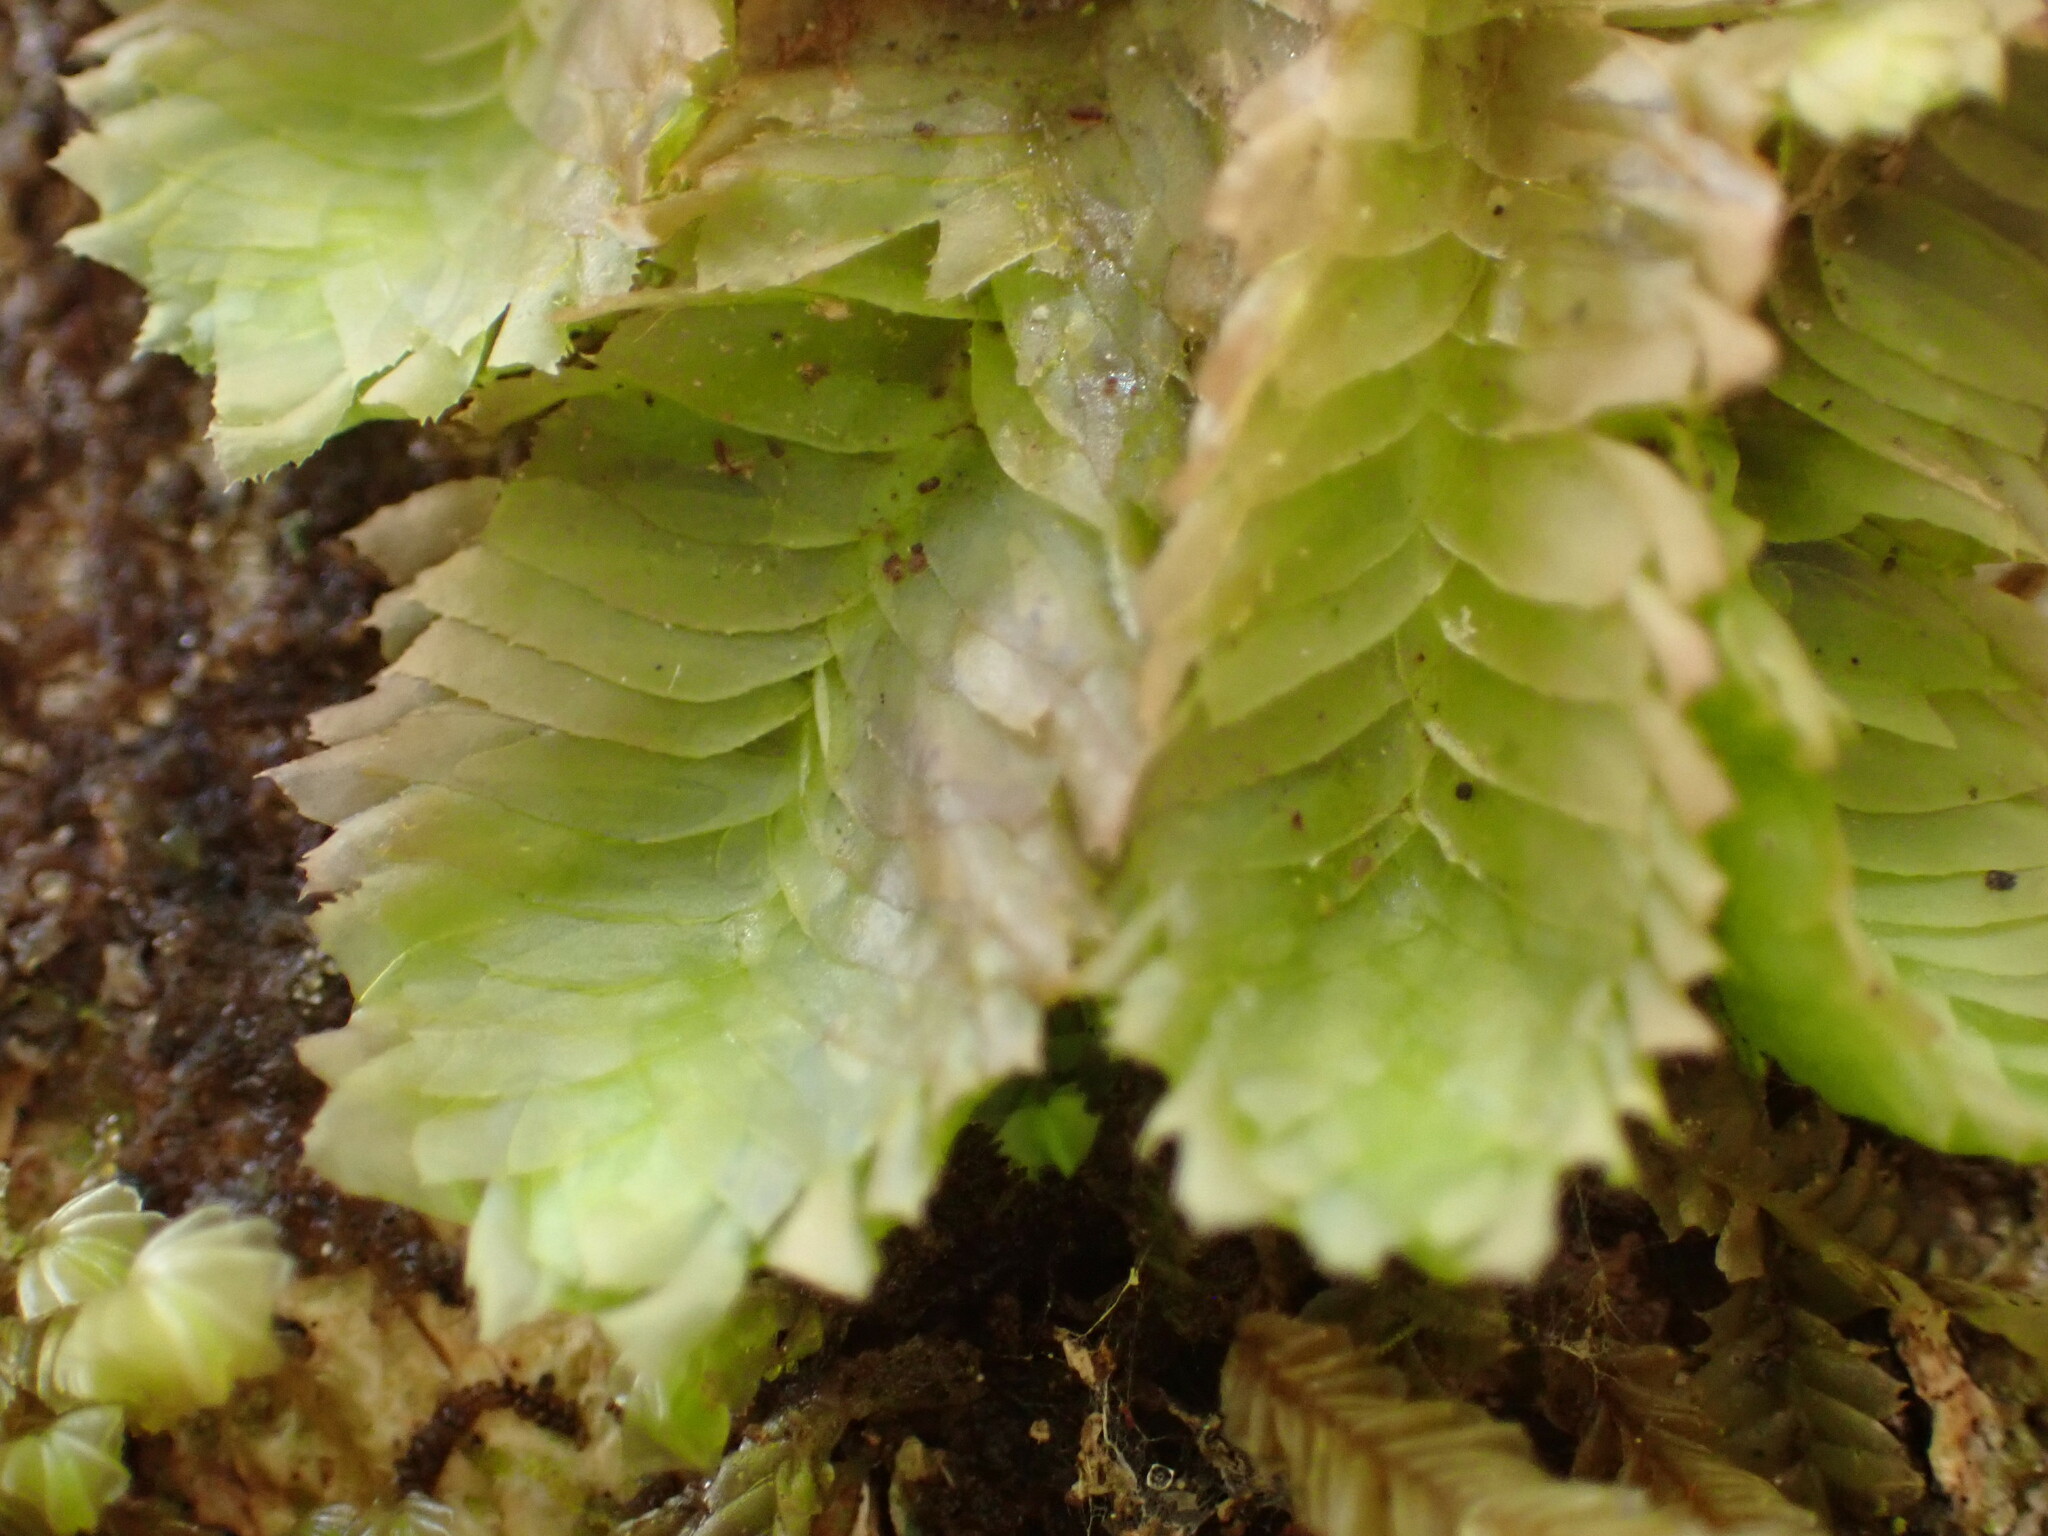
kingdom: Plantae
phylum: Marchantiophyta
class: Jungermanniopsida
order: Jungermanniales
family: Schistochilaceae
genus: Schistochila
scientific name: Schistochila tuloides
